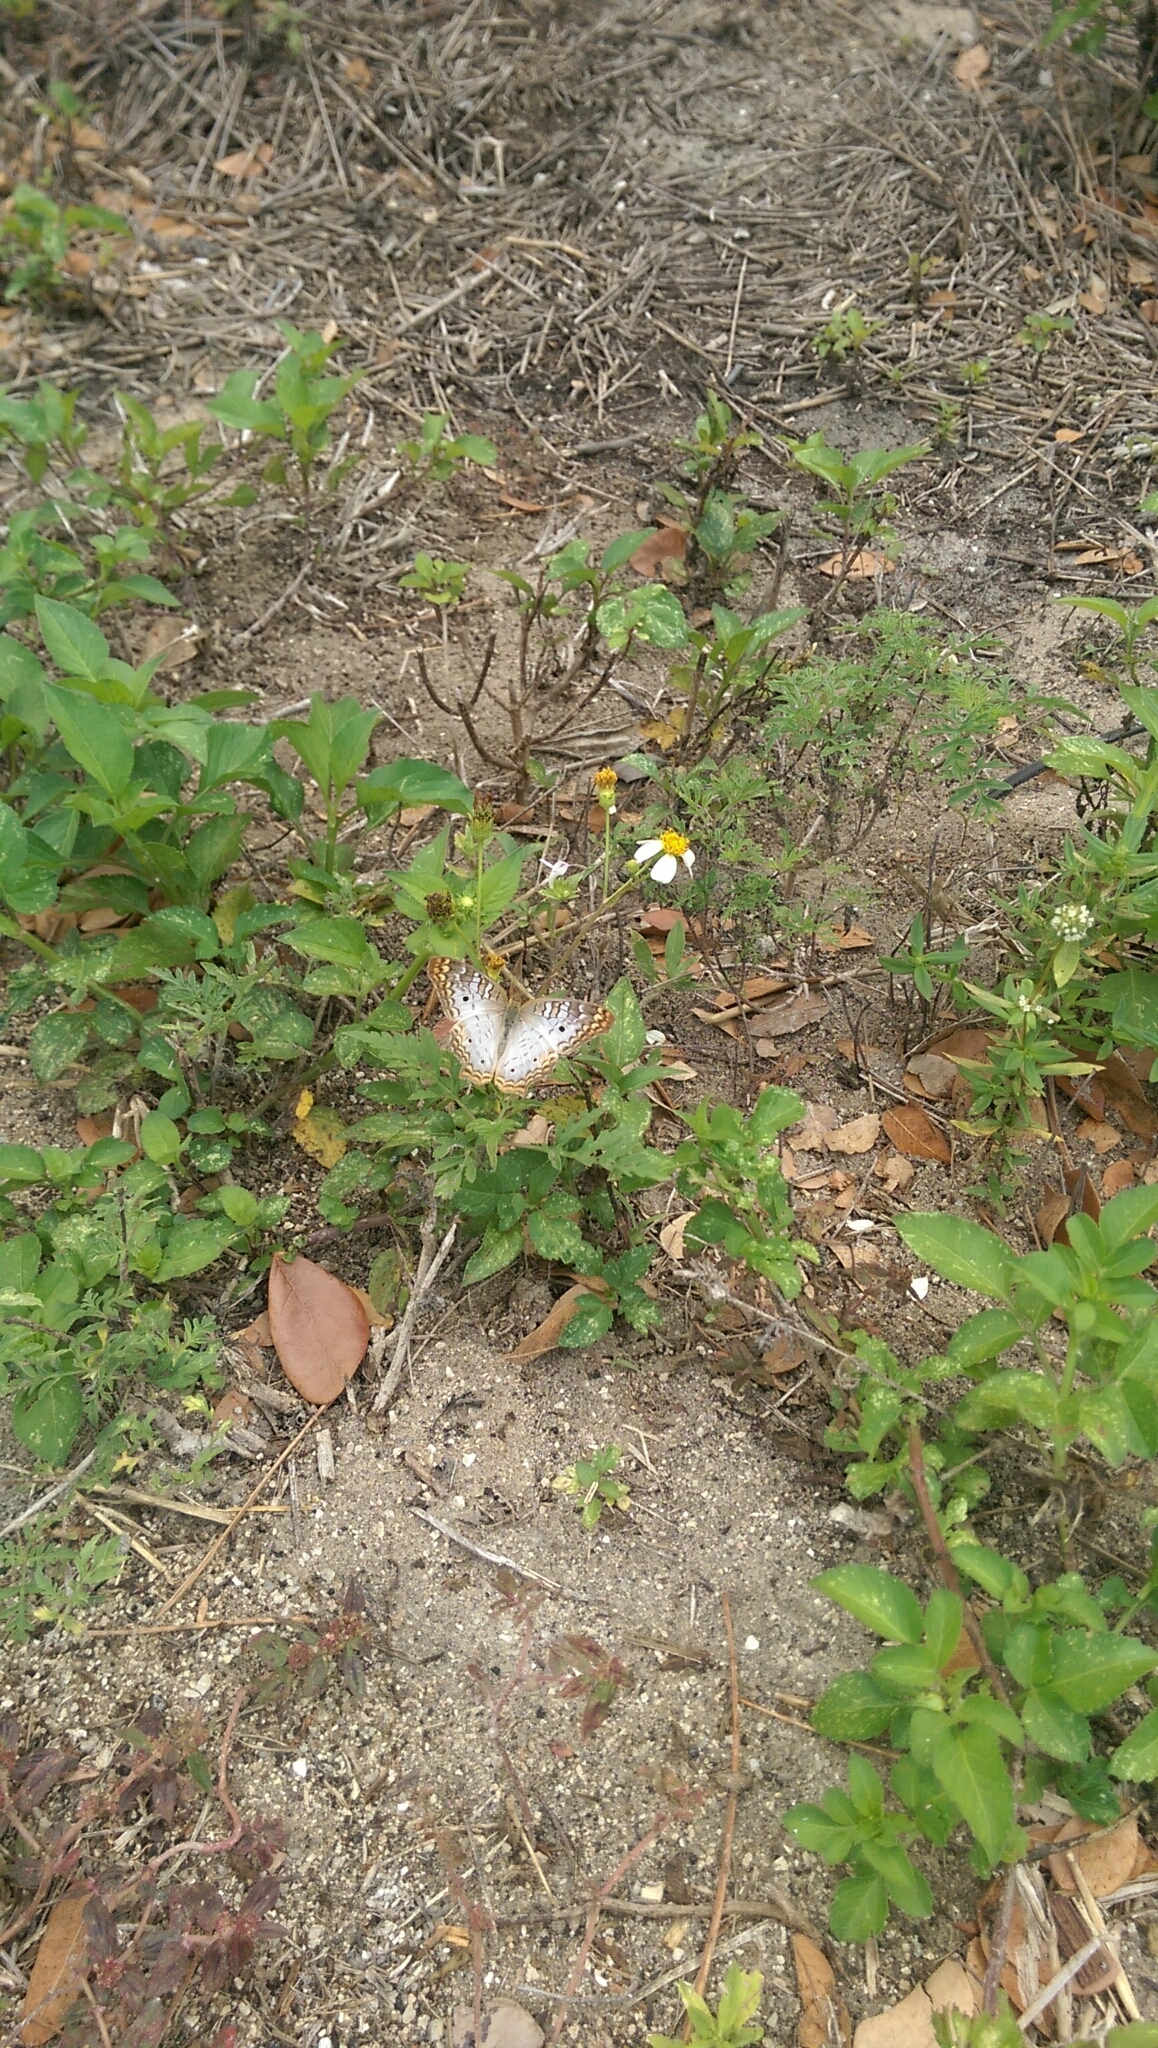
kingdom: Animalia
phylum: Arthropoda
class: Insecta
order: Lepidoptera
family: Nymphalidae
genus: Anartia
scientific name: Anartia jatrophae
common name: White peacock
